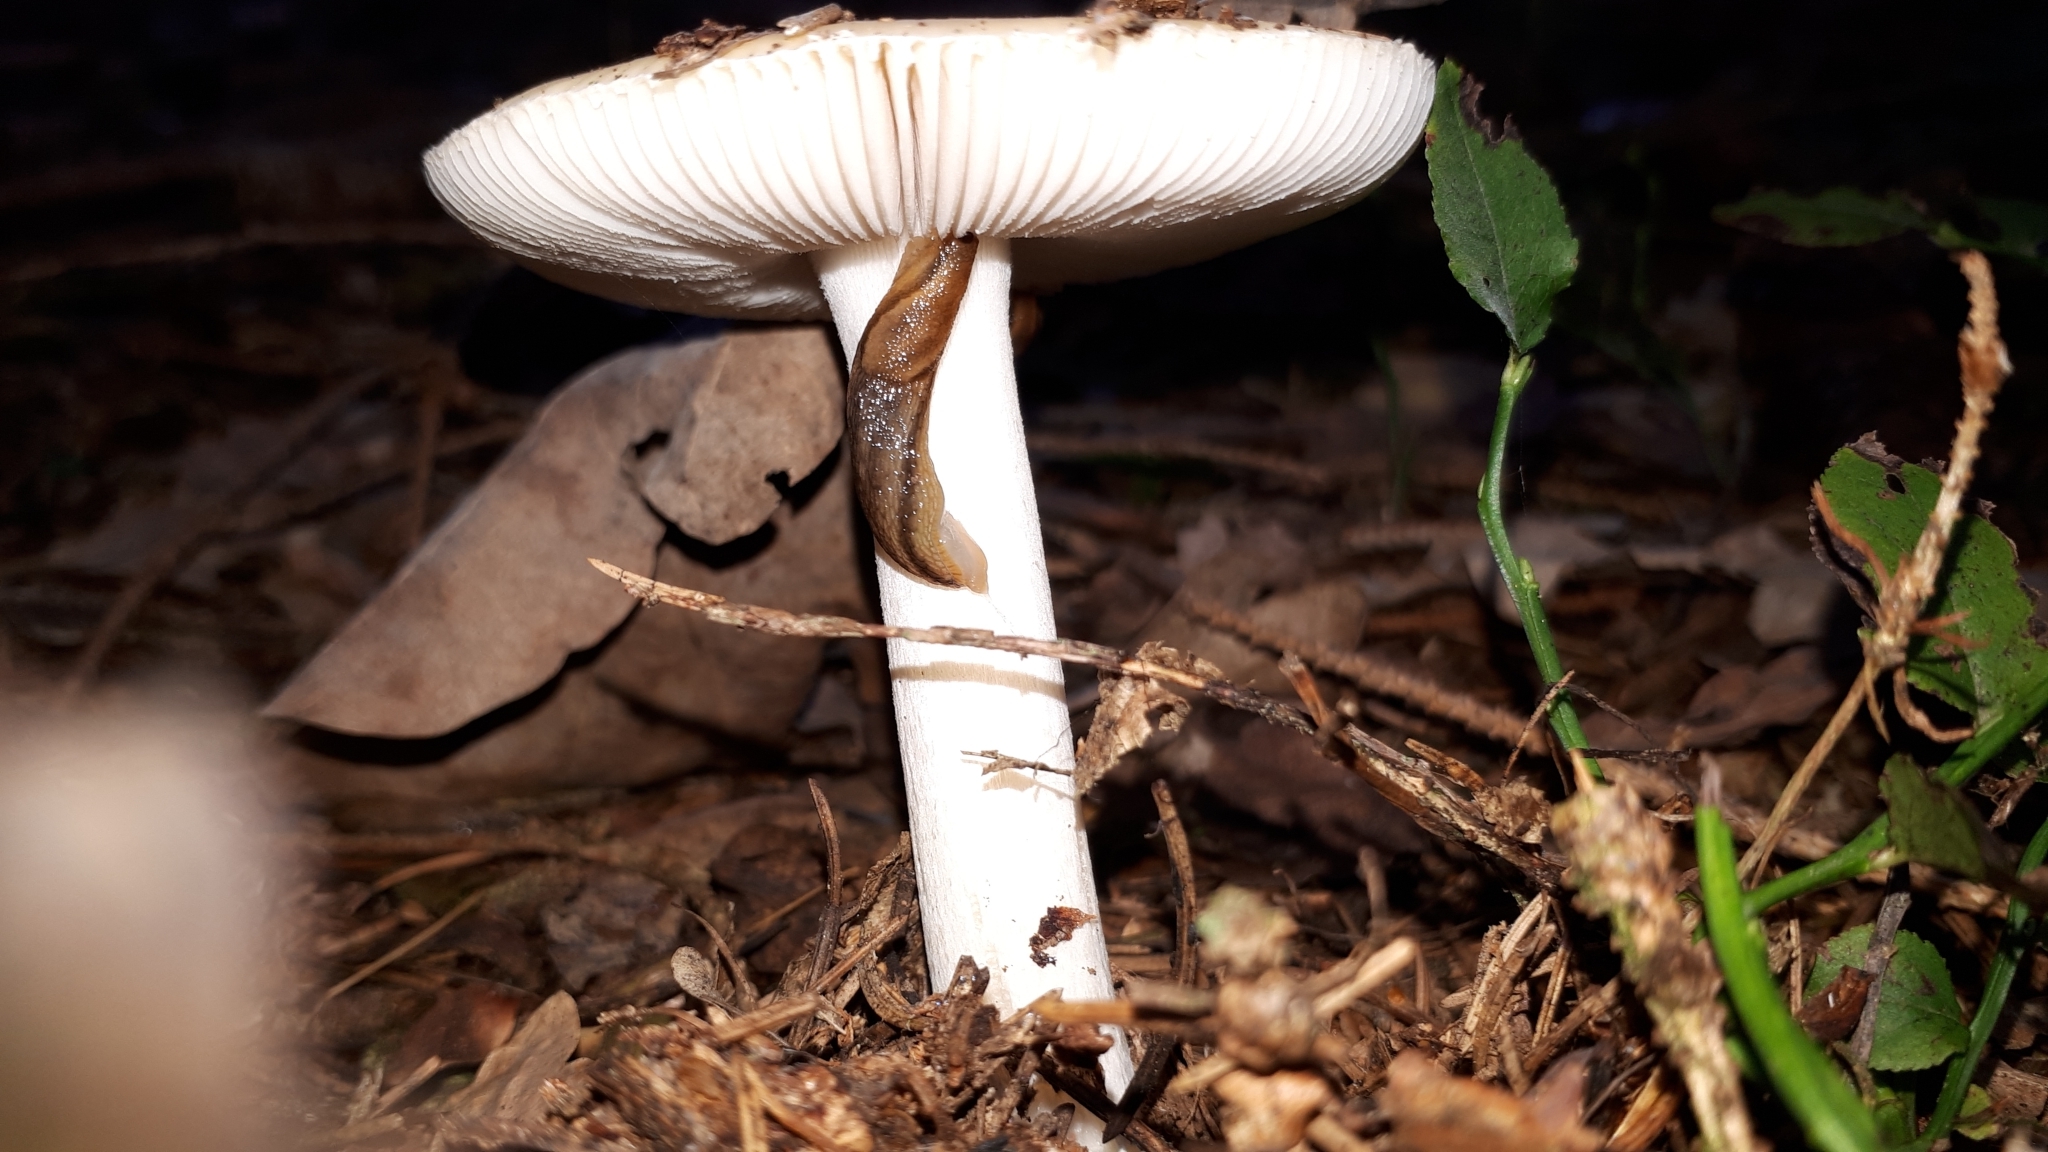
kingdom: Fungi
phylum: Basidiomycota
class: Agaricomycetes
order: Agaricales
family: Amanitaceae
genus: Amanita
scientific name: Amanita gemmata
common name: Jewelled amanita
